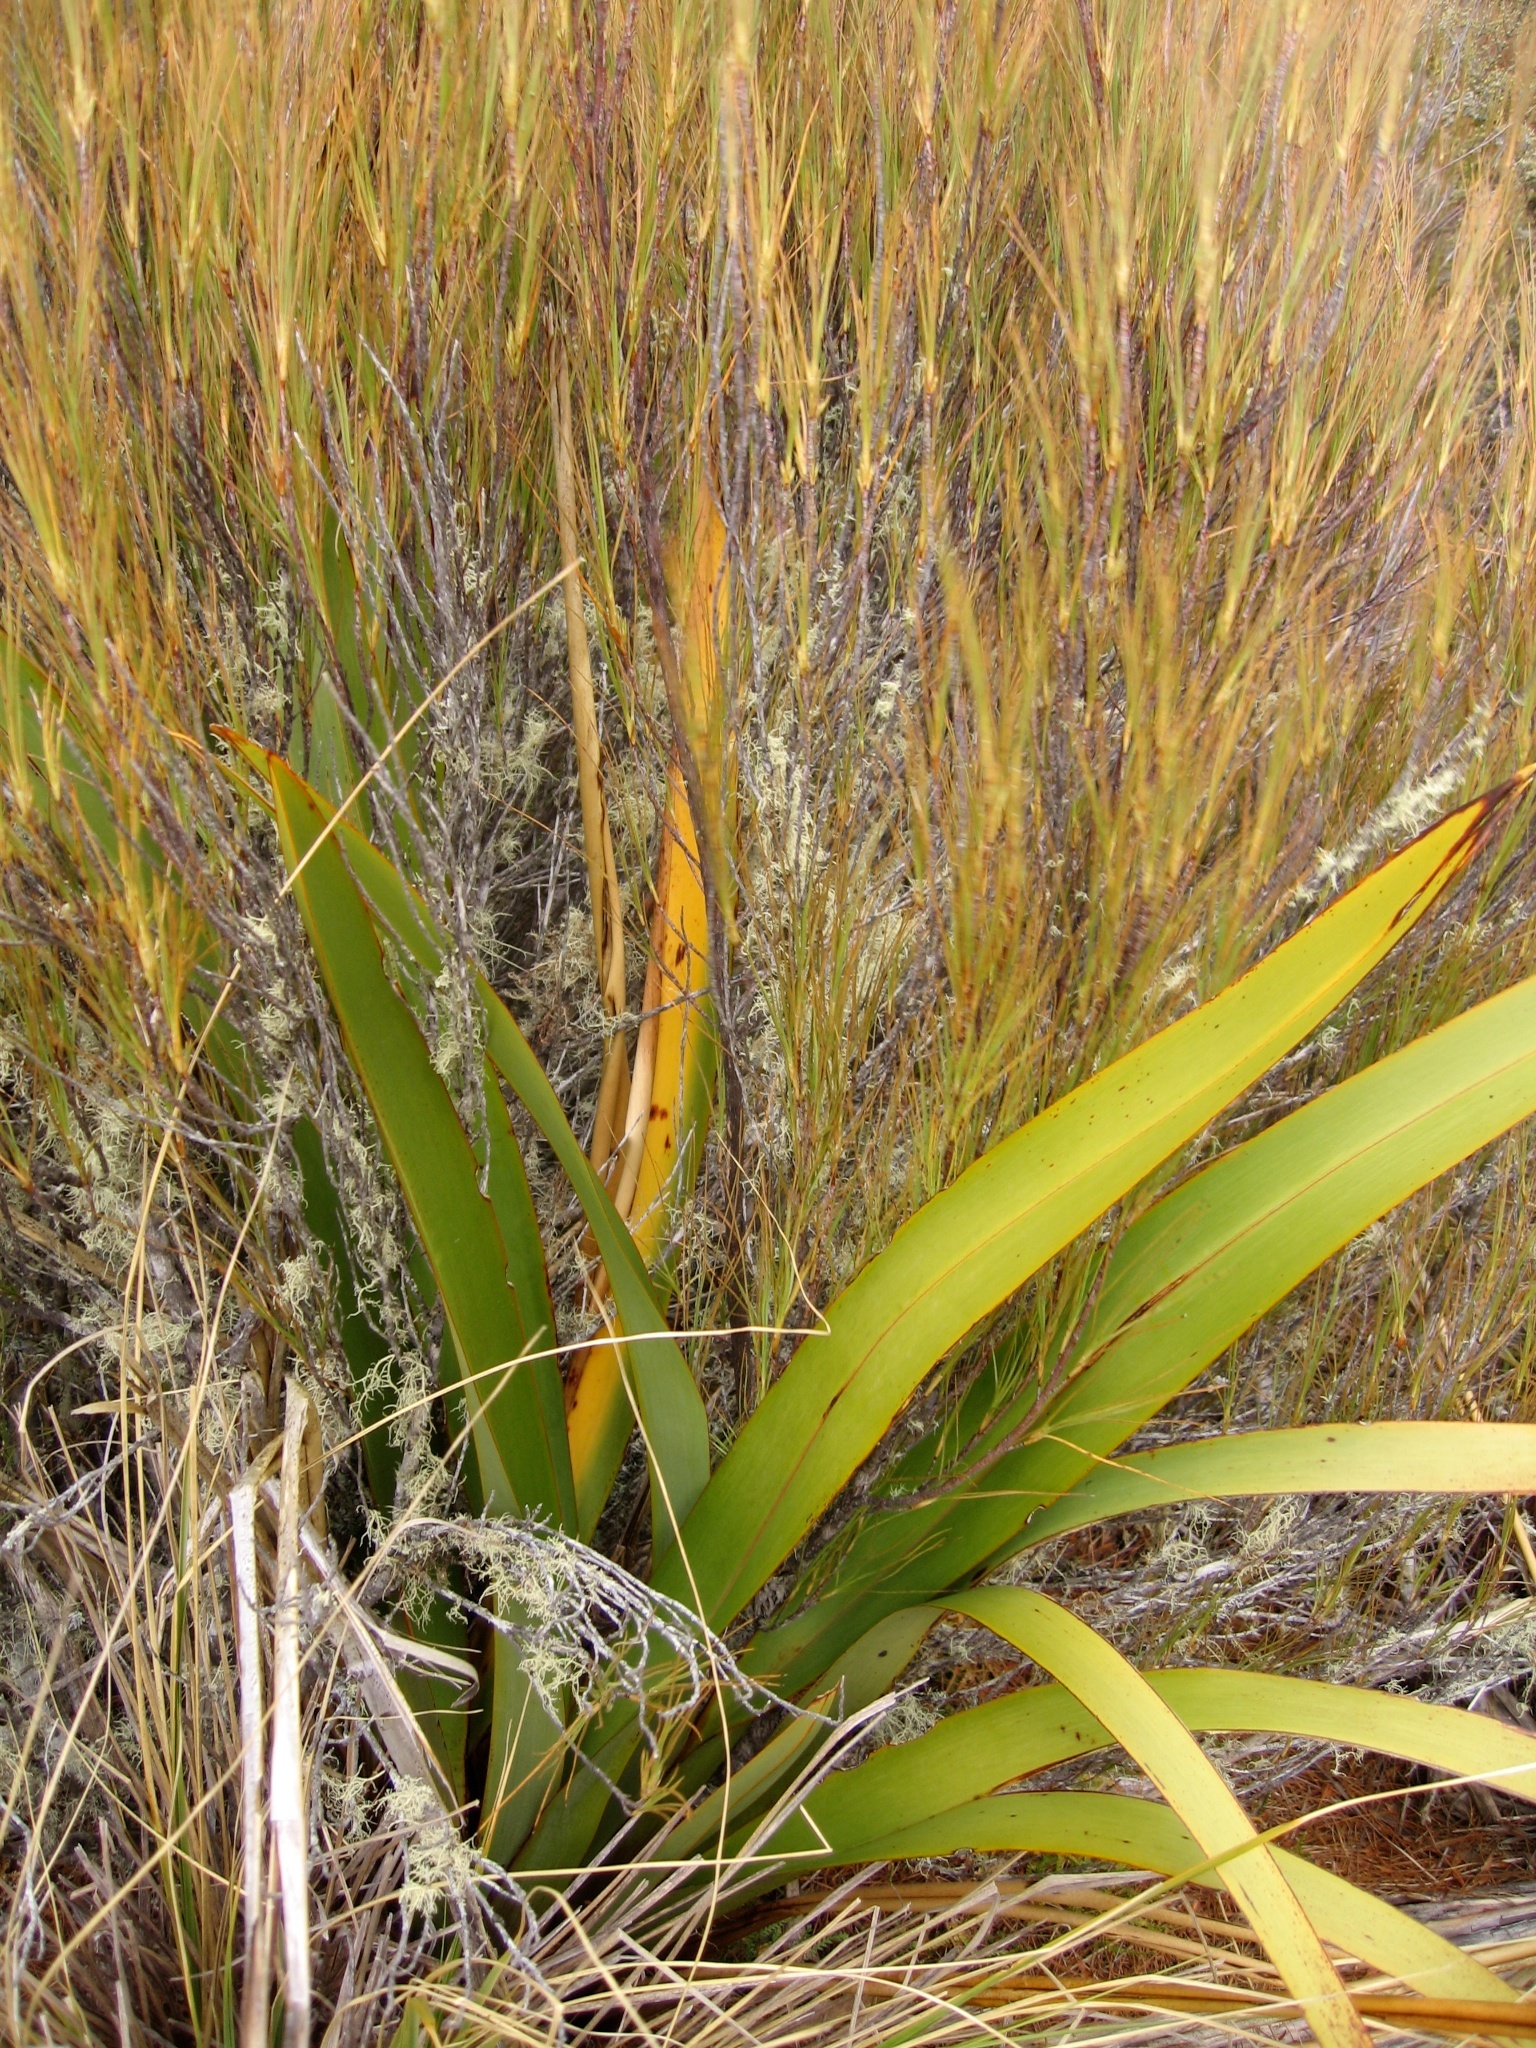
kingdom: Plantae
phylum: Tracheophyta
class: Liliopsida
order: Asparagales
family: Asphodelaceae
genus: Phormium
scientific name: Phormium colensoi
